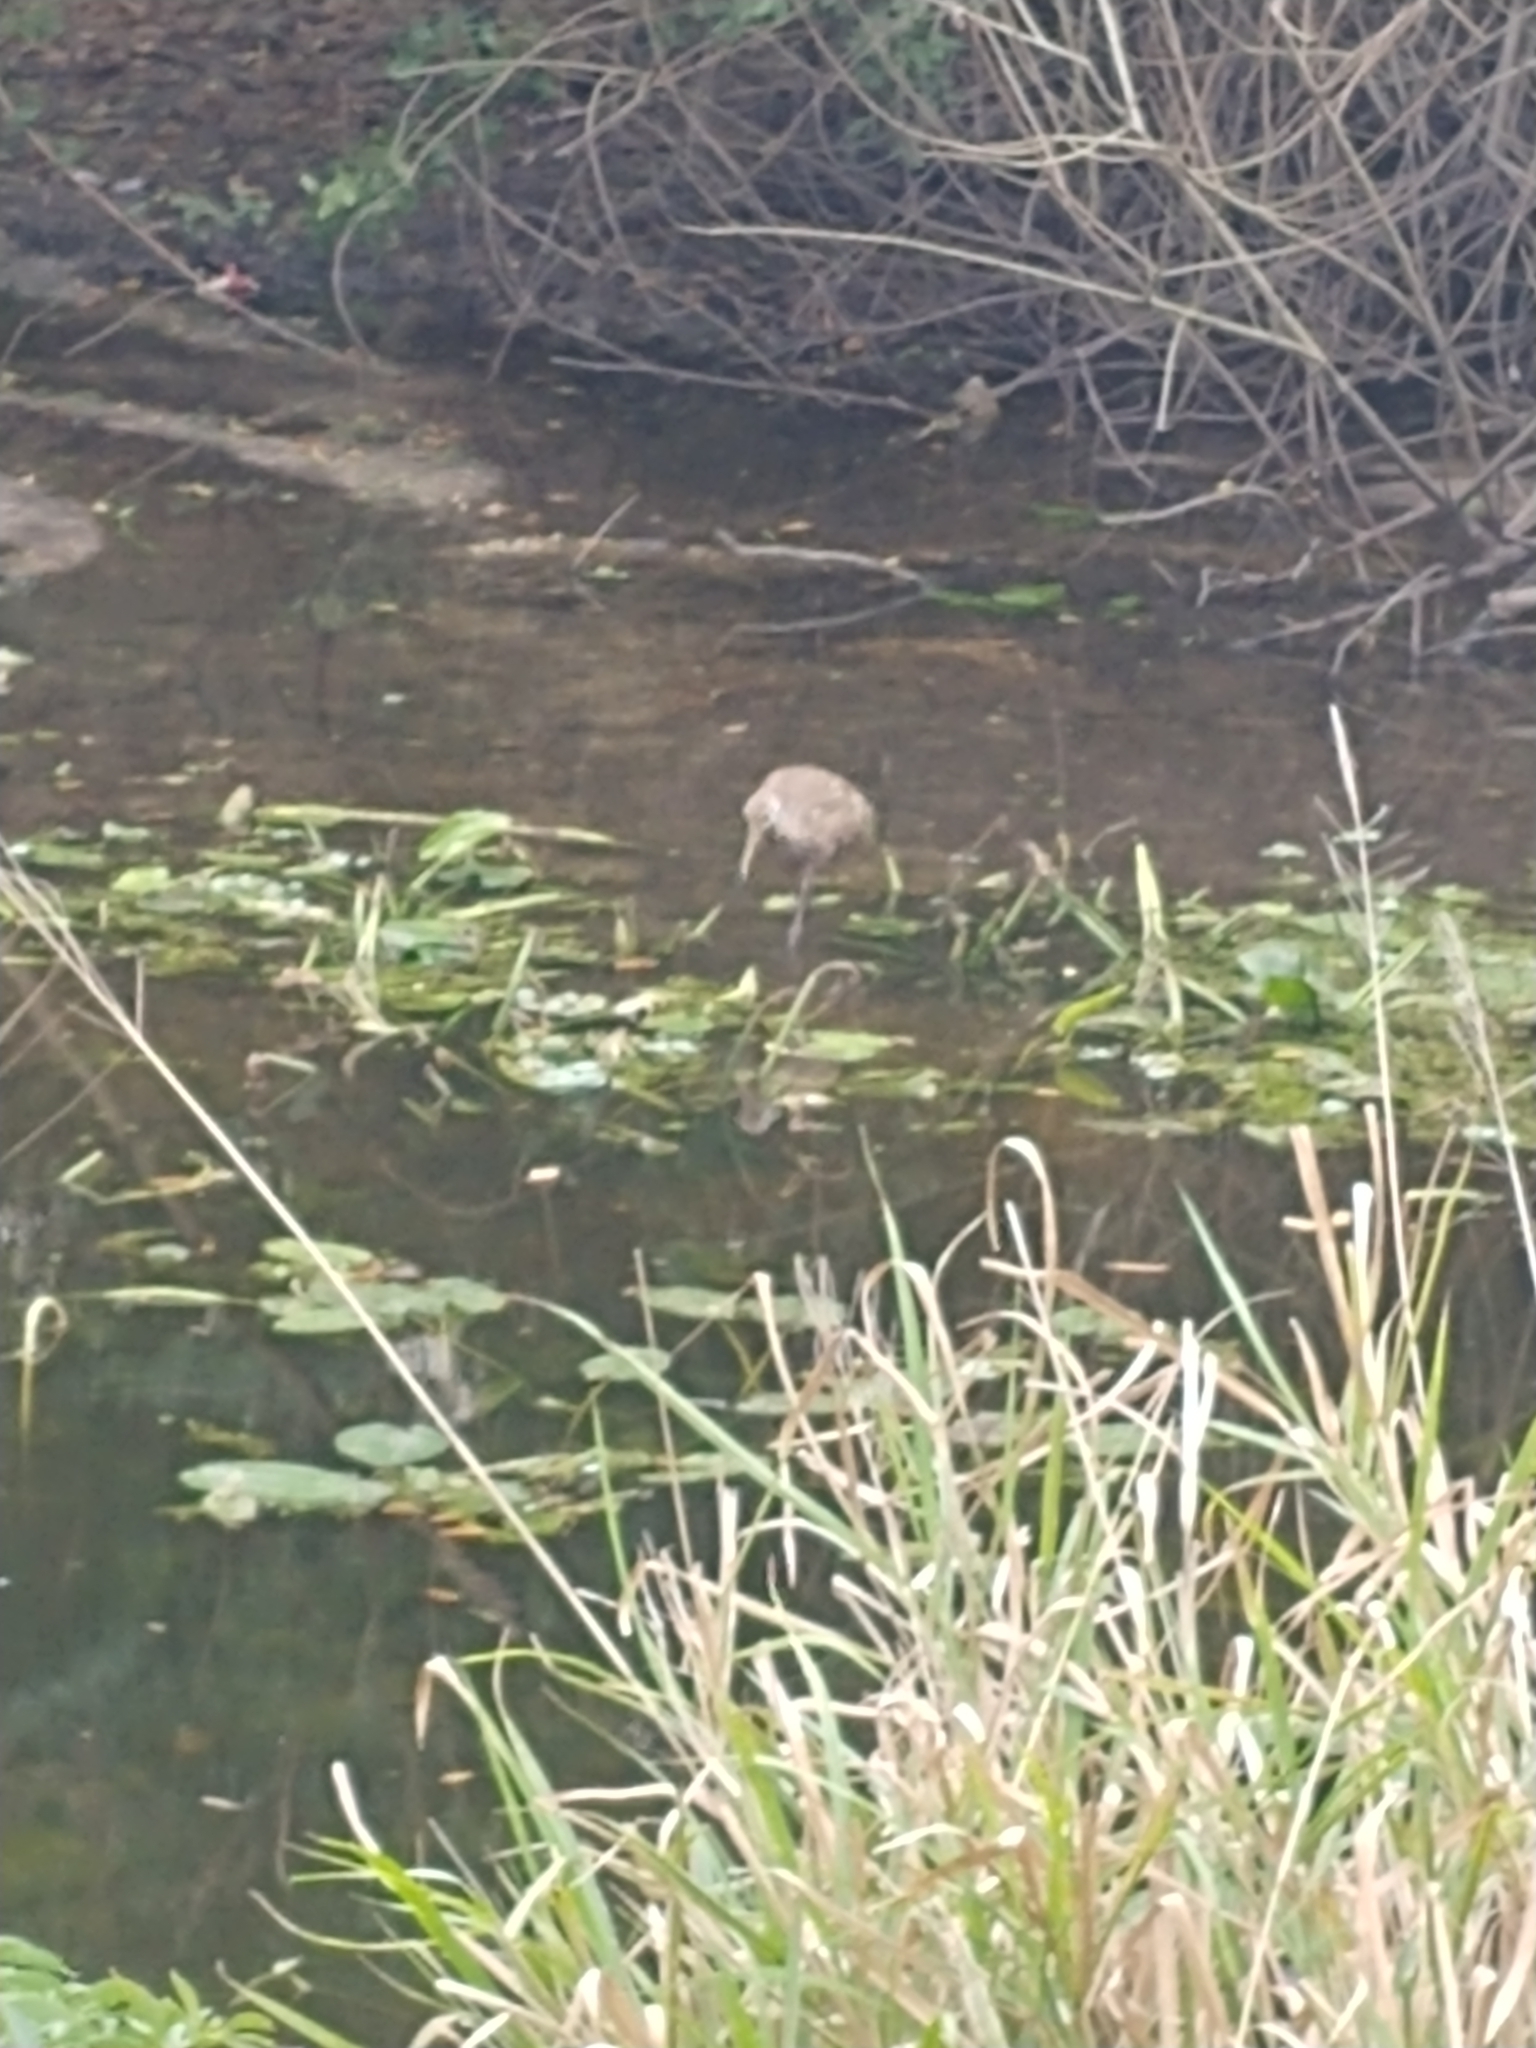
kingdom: Animalia
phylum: Chordata
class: Aves
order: Gruiformes
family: Aramidae
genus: Aramus
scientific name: Aramus guarauna
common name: Limpkin
